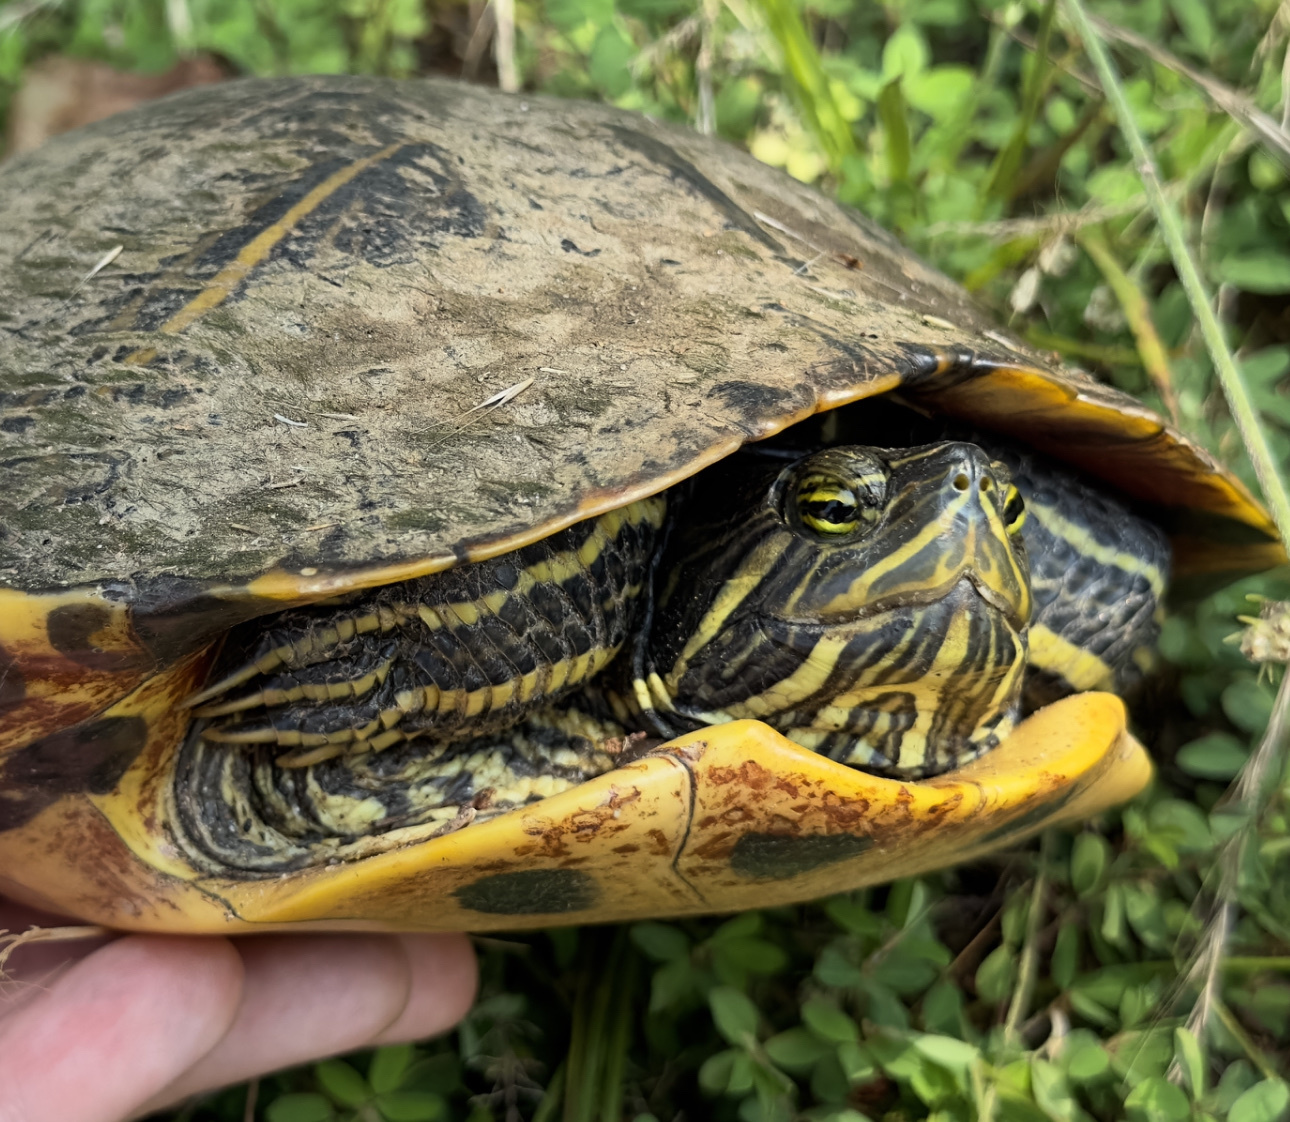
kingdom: Animalia
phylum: Chordata
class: Testudines
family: Emydidae
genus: Trachemys
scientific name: Trachemys scripta
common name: Slider
